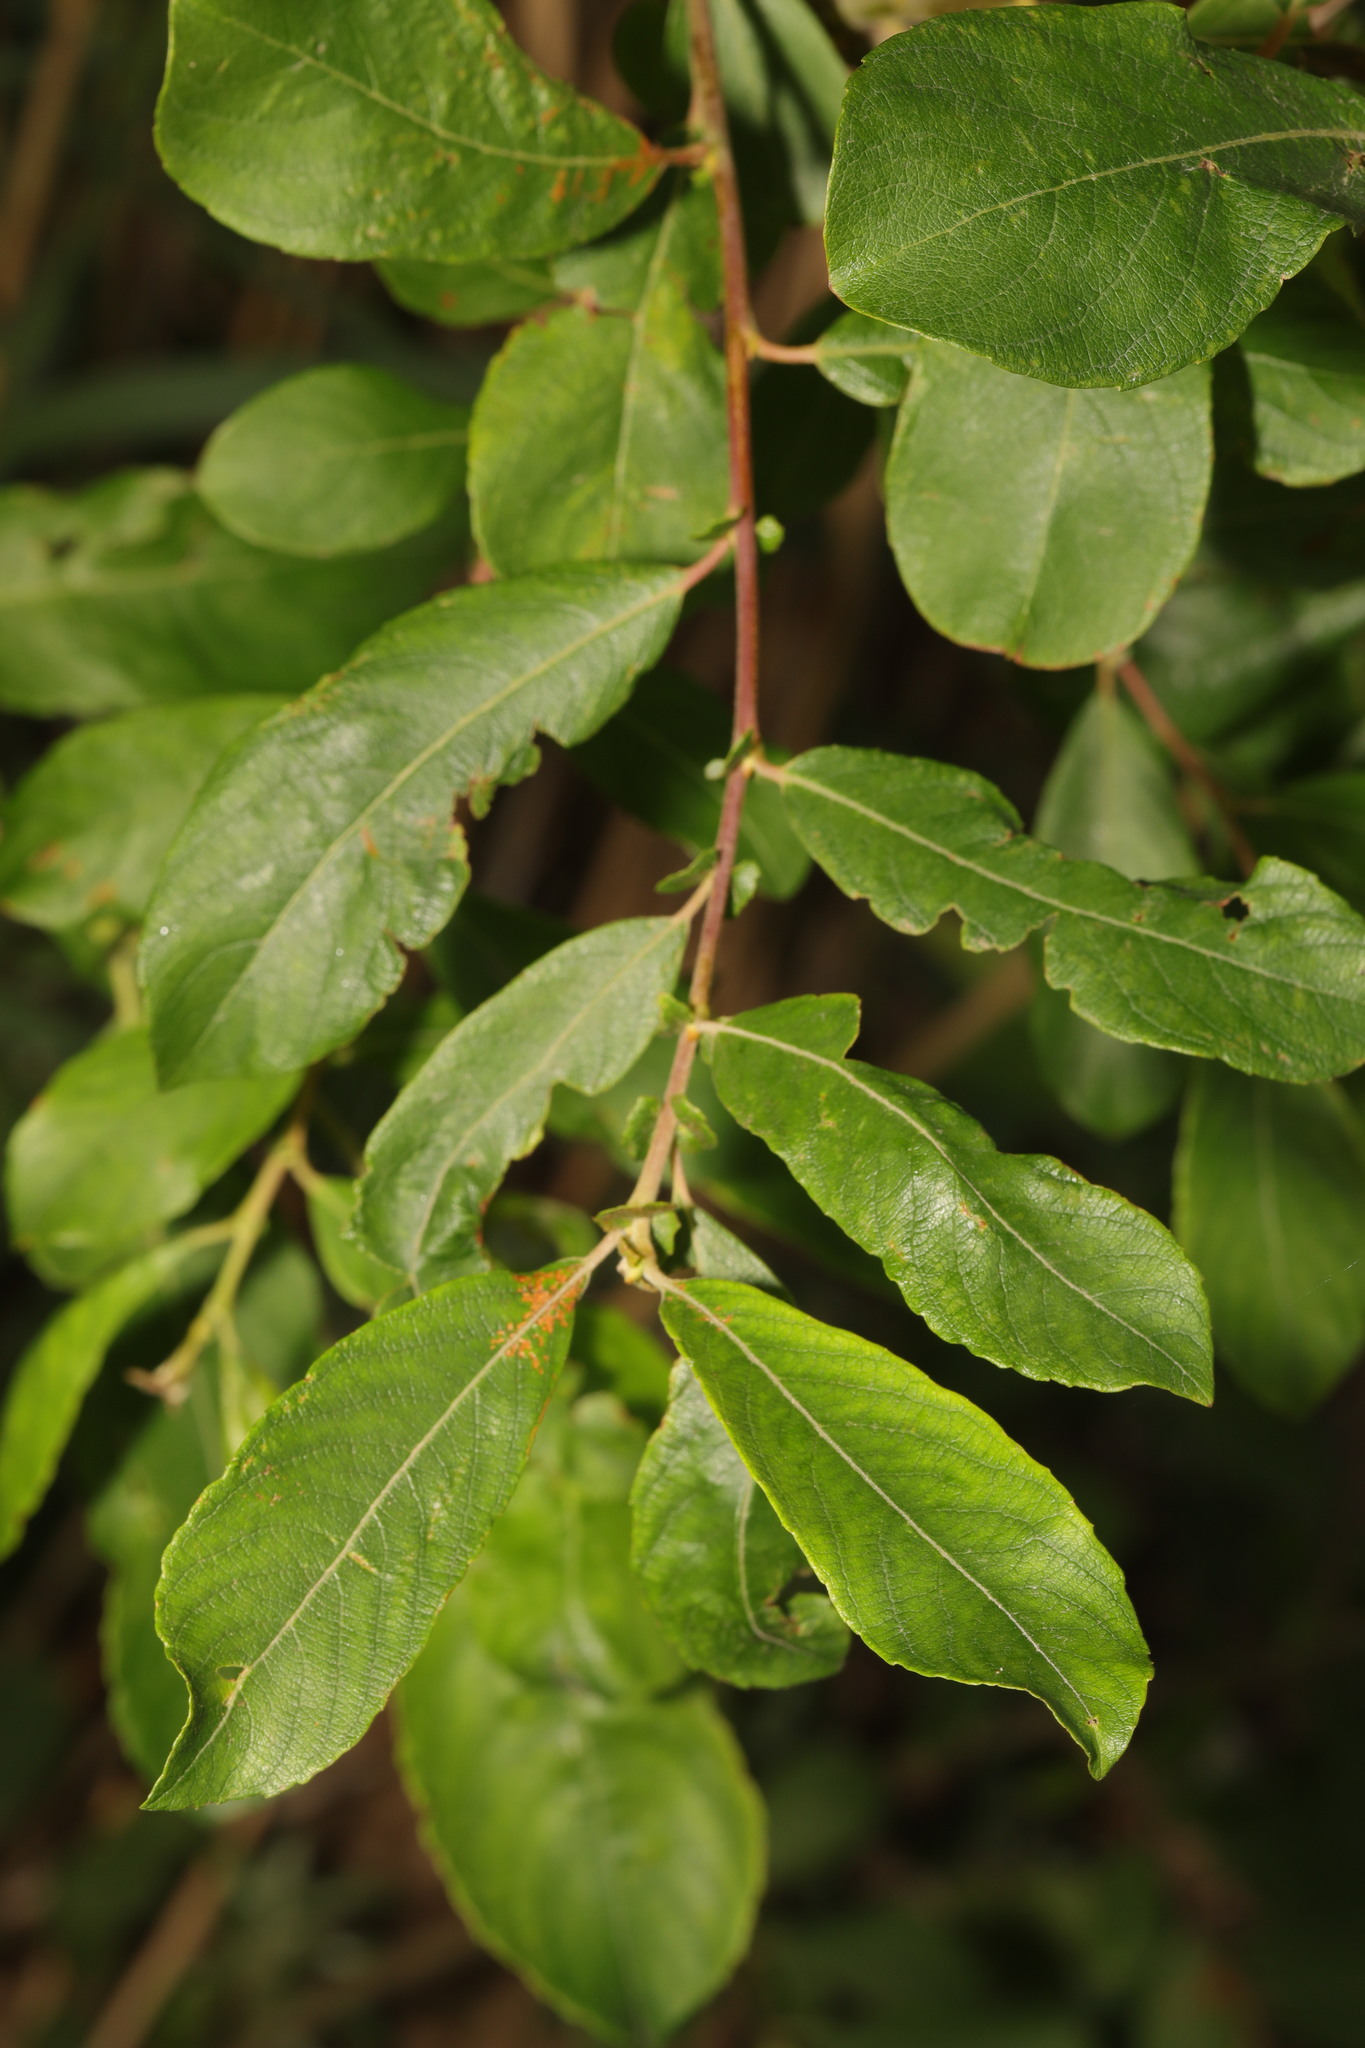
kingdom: Plantae
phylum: Tracheophyta
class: Magnoliopsida
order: Malpighiales
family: Salicaceae
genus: Salix
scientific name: Salix cinerea
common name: Common sallow
